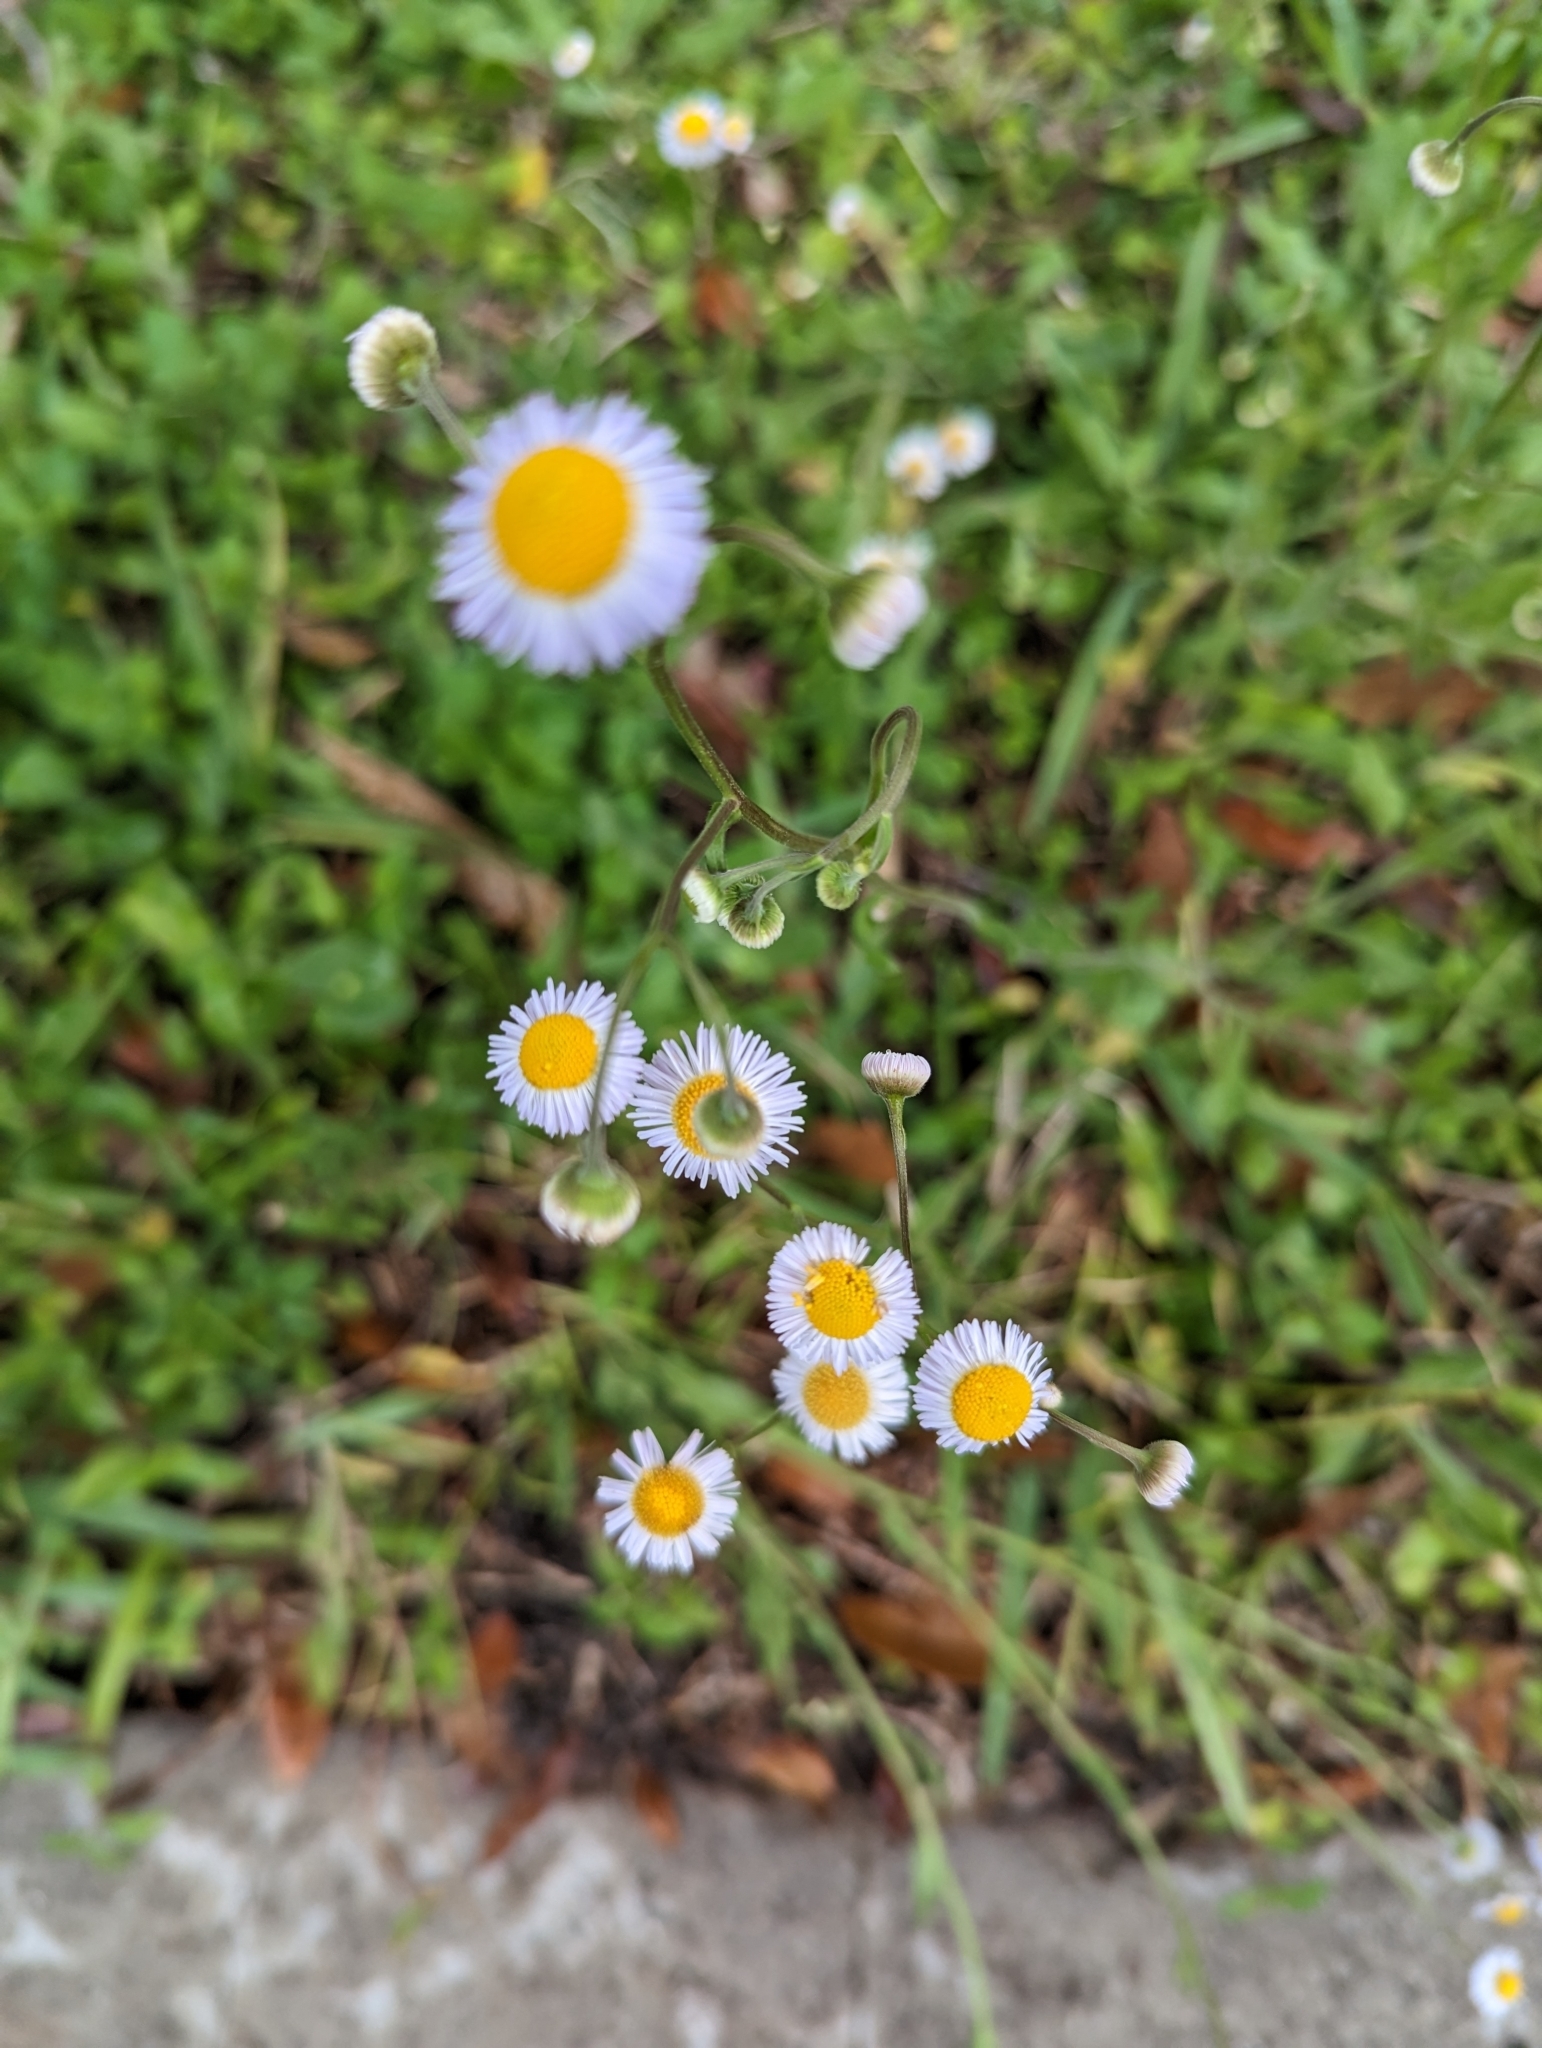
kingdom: Plantae
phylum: Tracheophyta
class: Magnoliopsida
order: Asterales
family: Asteraceae
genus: Erigeron
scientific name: Erigeron quercifolius
